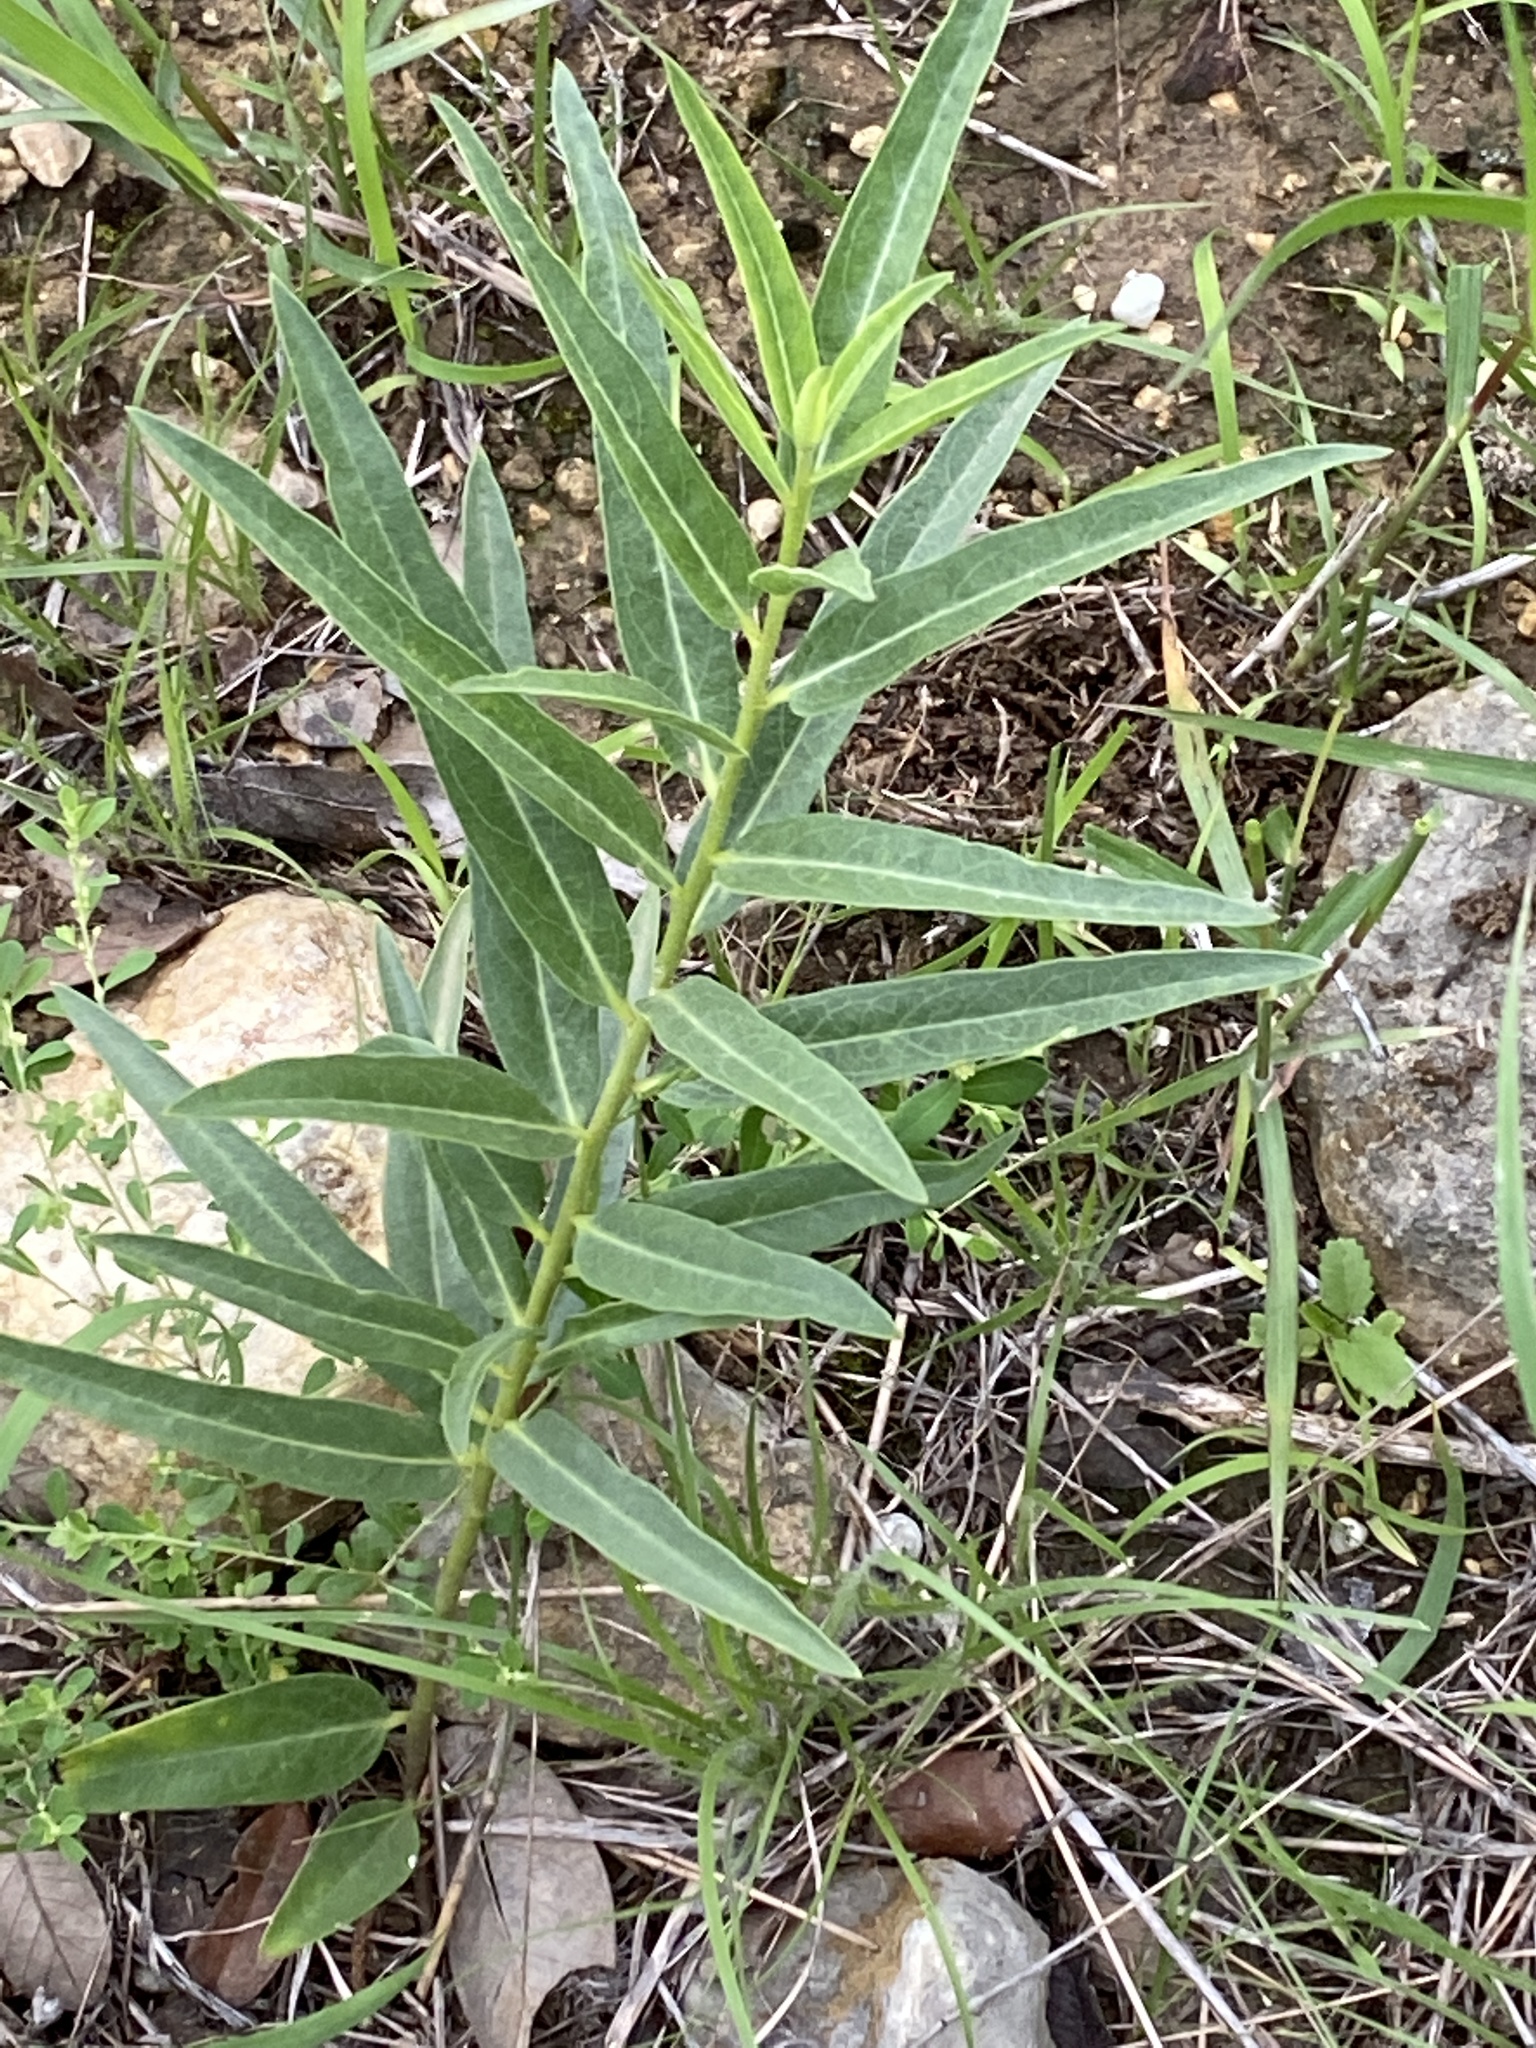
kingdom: Plantae
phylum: Tracheophyta
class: Magnoliopsida
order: Gentianales
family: Apocynaceae
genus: Asclepias
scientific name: Asclepias asperula
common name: Antelope horns
